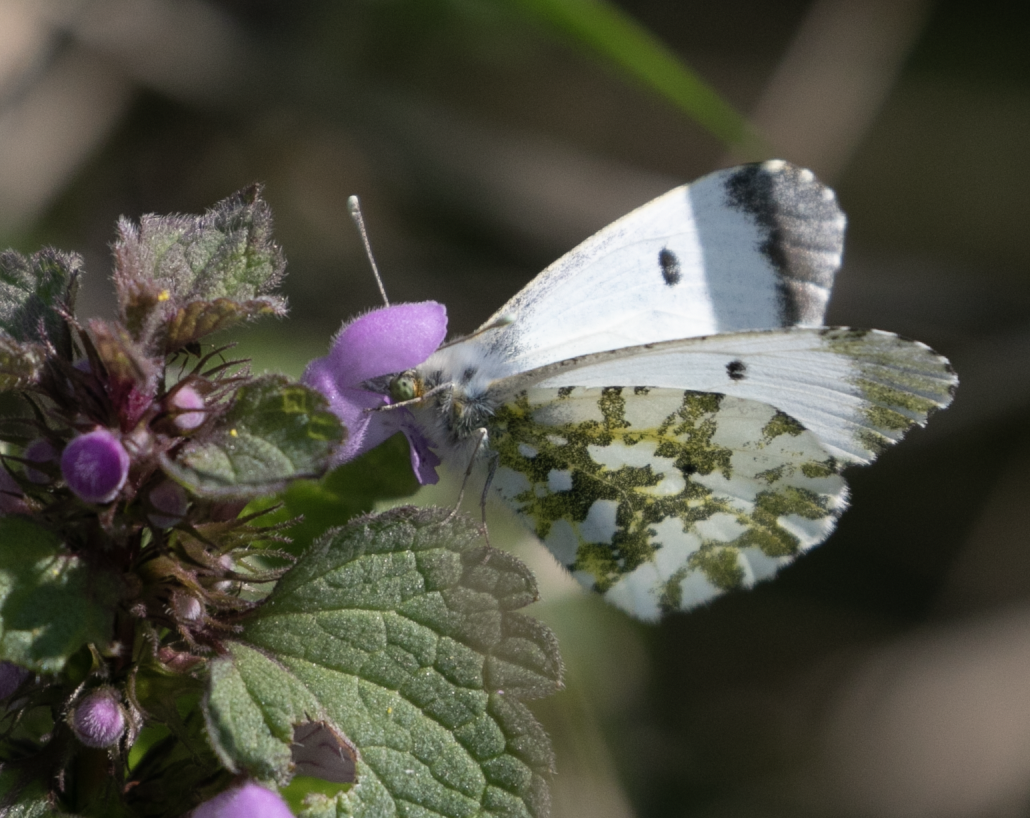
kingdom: Animalia
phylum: Arthropoda
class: Insecta
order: Lepidoptera
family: Pieridae
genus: Anthocharis
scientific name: Anthocharis cardamines
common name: Orange-tip
